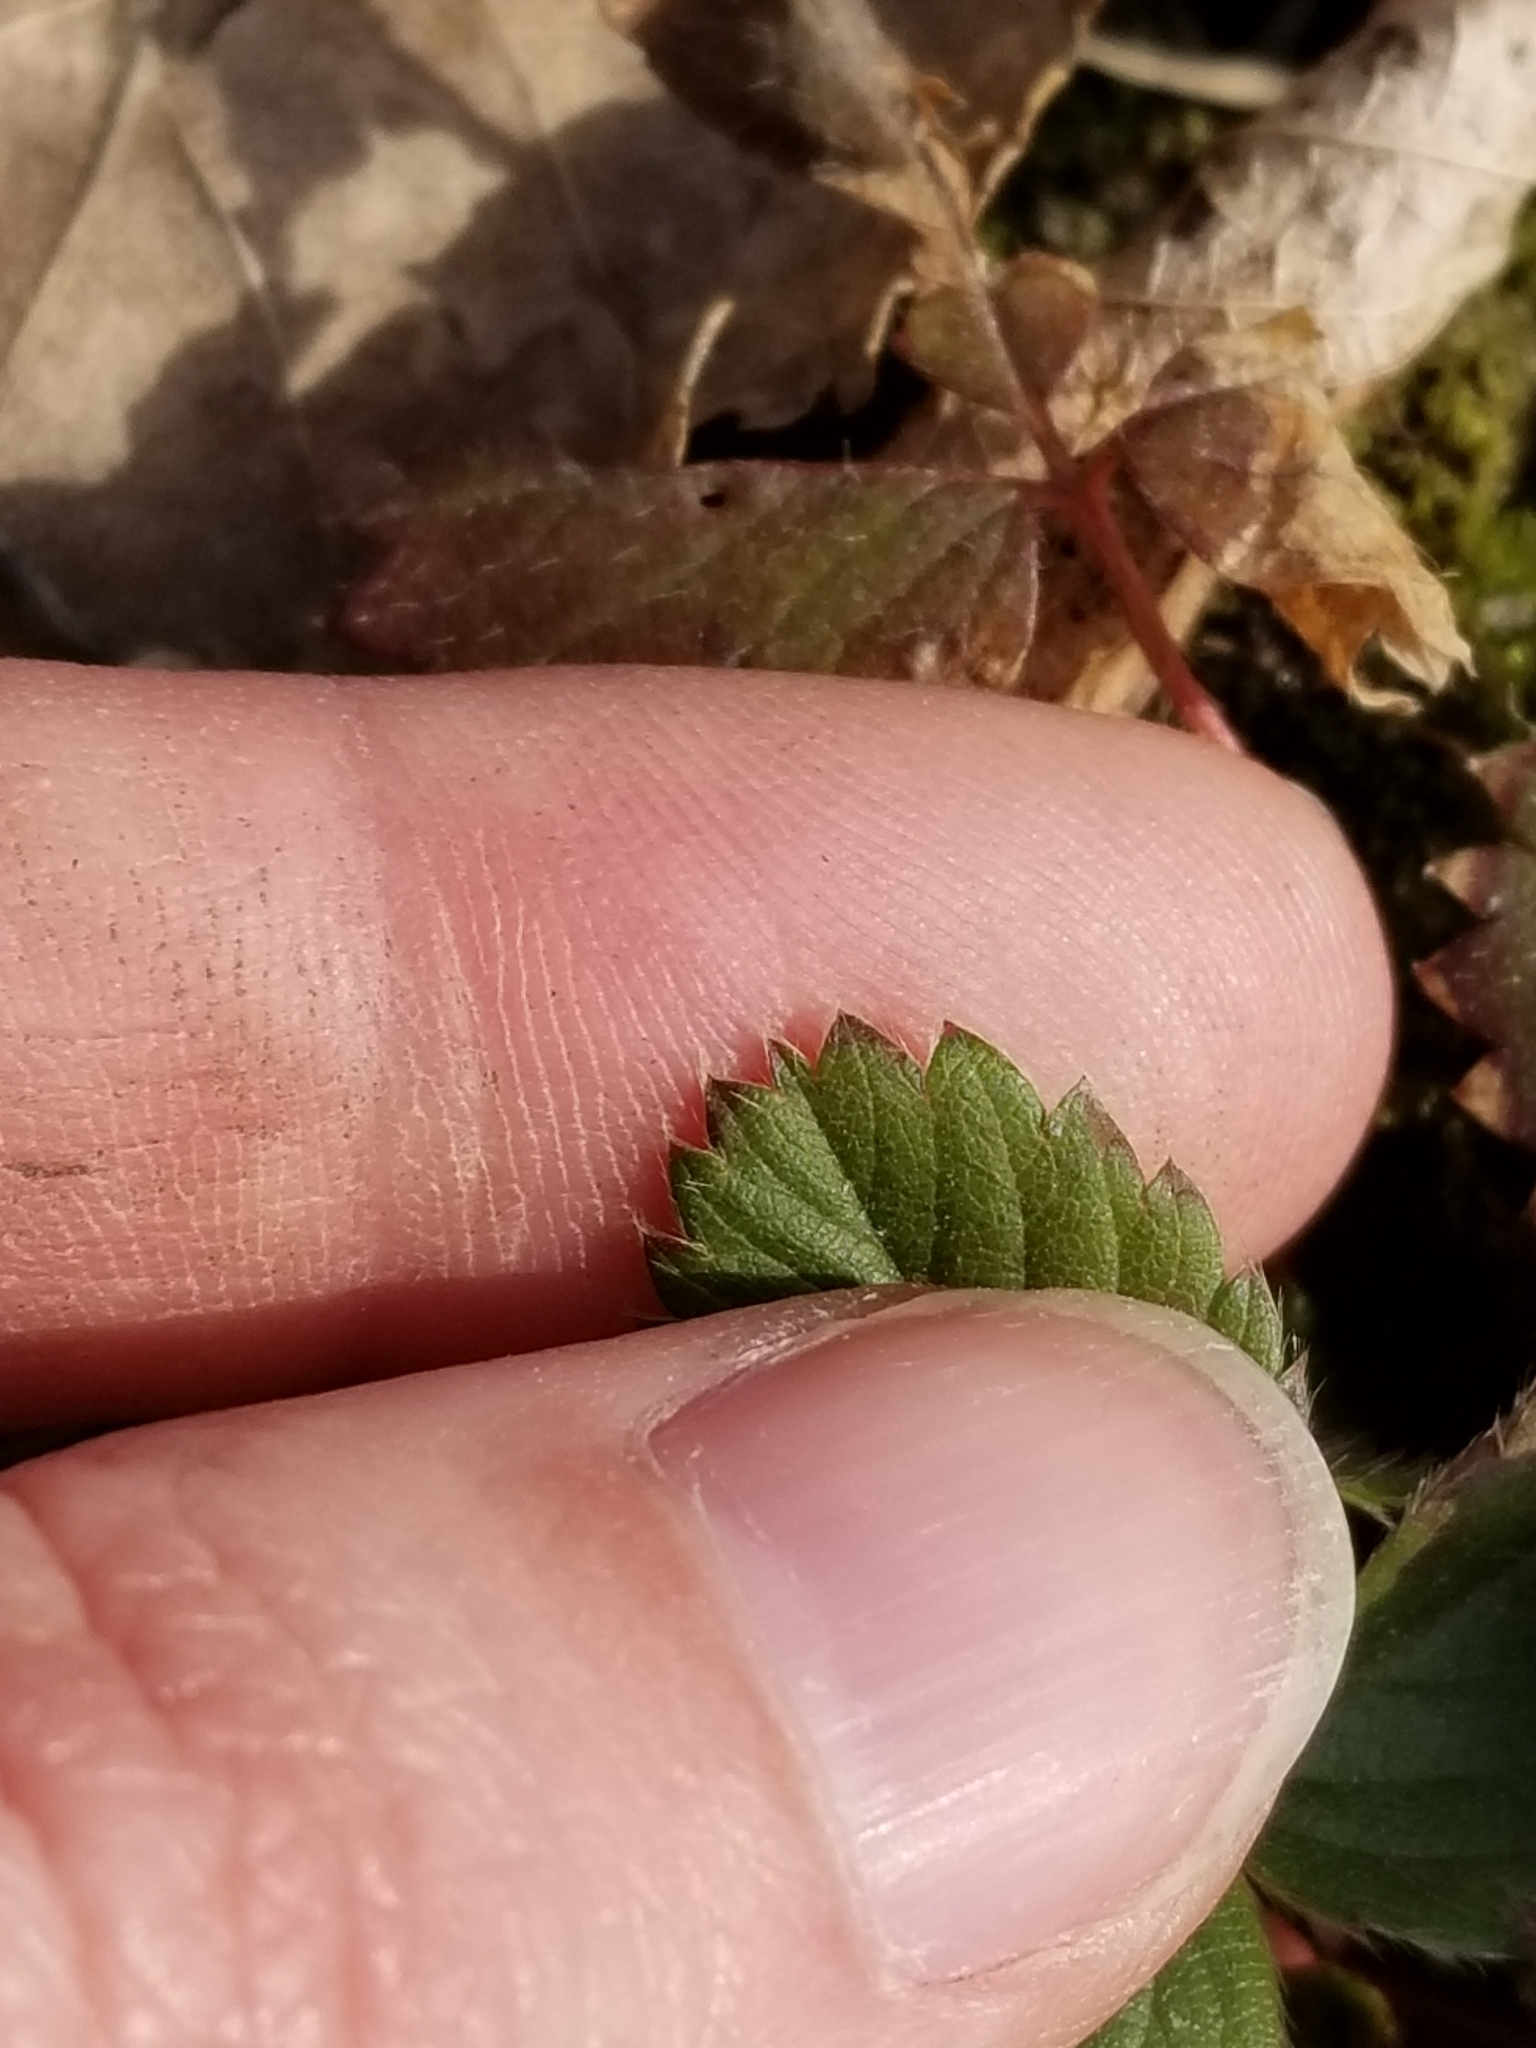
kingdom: Plantae
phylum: Tracheophyta
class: Magnoliopsida
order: Rosales
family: Rosaceae
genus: Fragaria
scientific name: Fragaria virginiana
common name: Thickleaved wild strawberry
